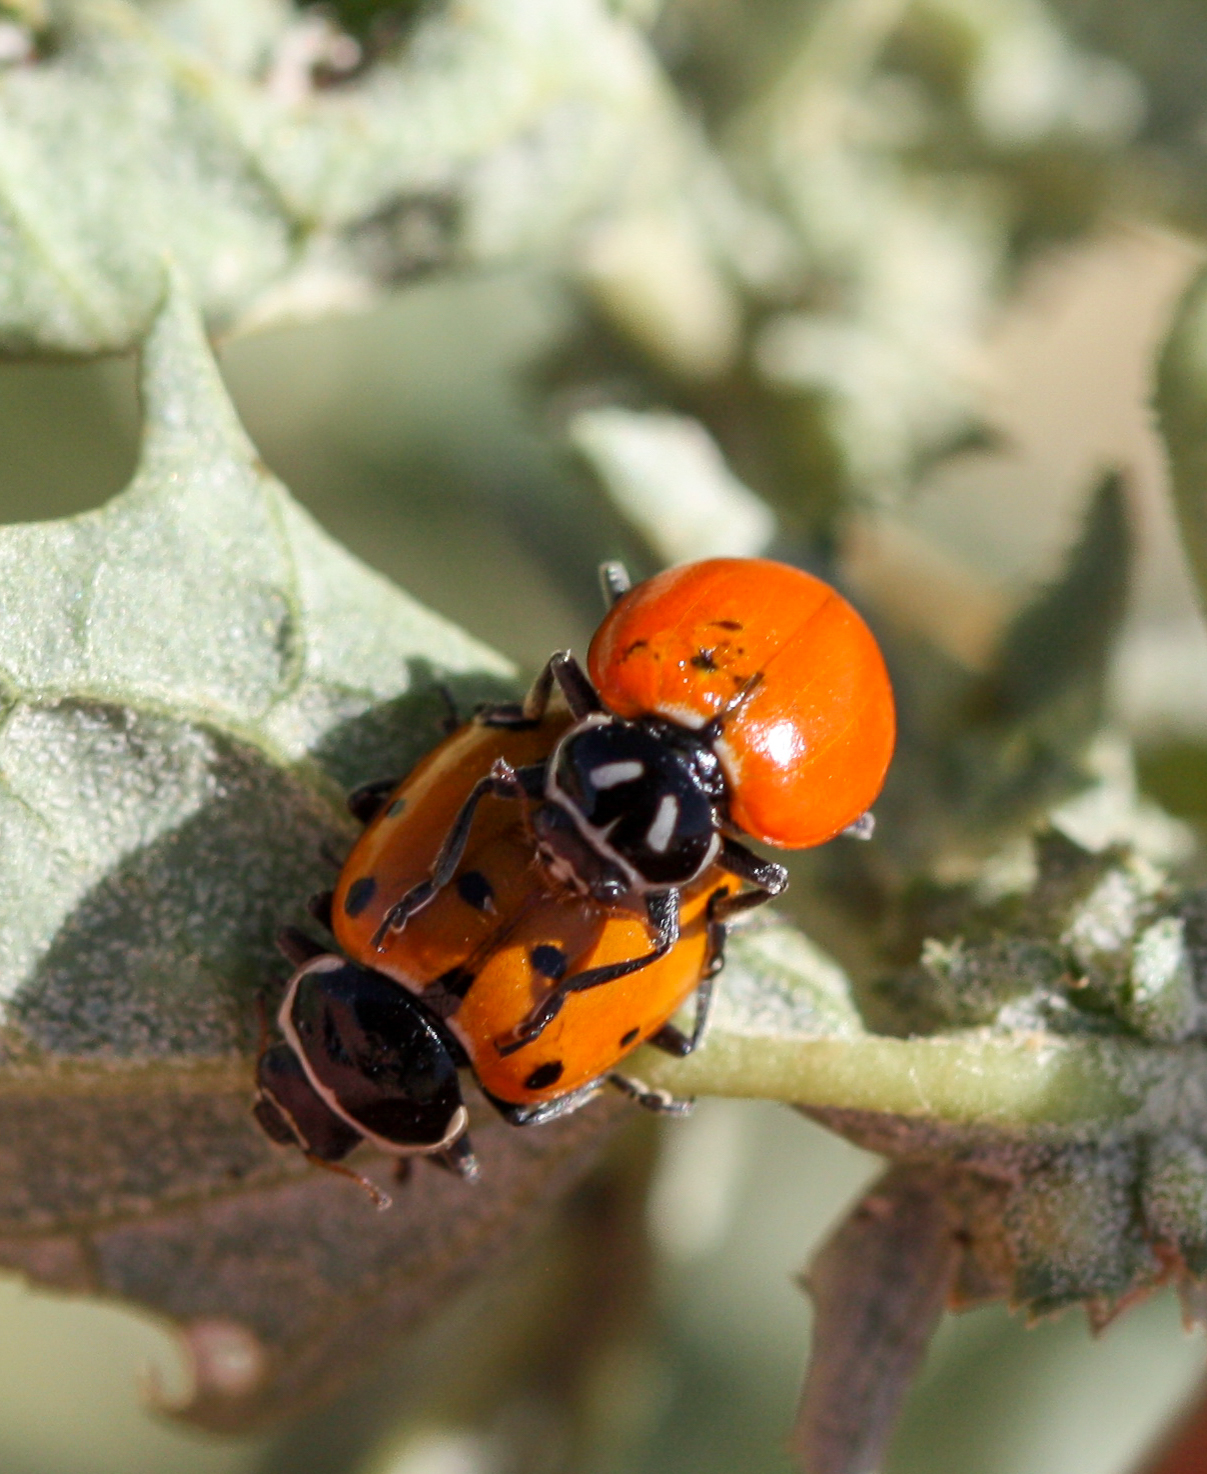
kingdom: Animalia
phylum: Arthropoda
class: Insecta
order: Coleoptera
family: Coccinellidae
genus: Hippodamia
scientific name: Hippodamia convergens
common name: Convergent lady beetle
